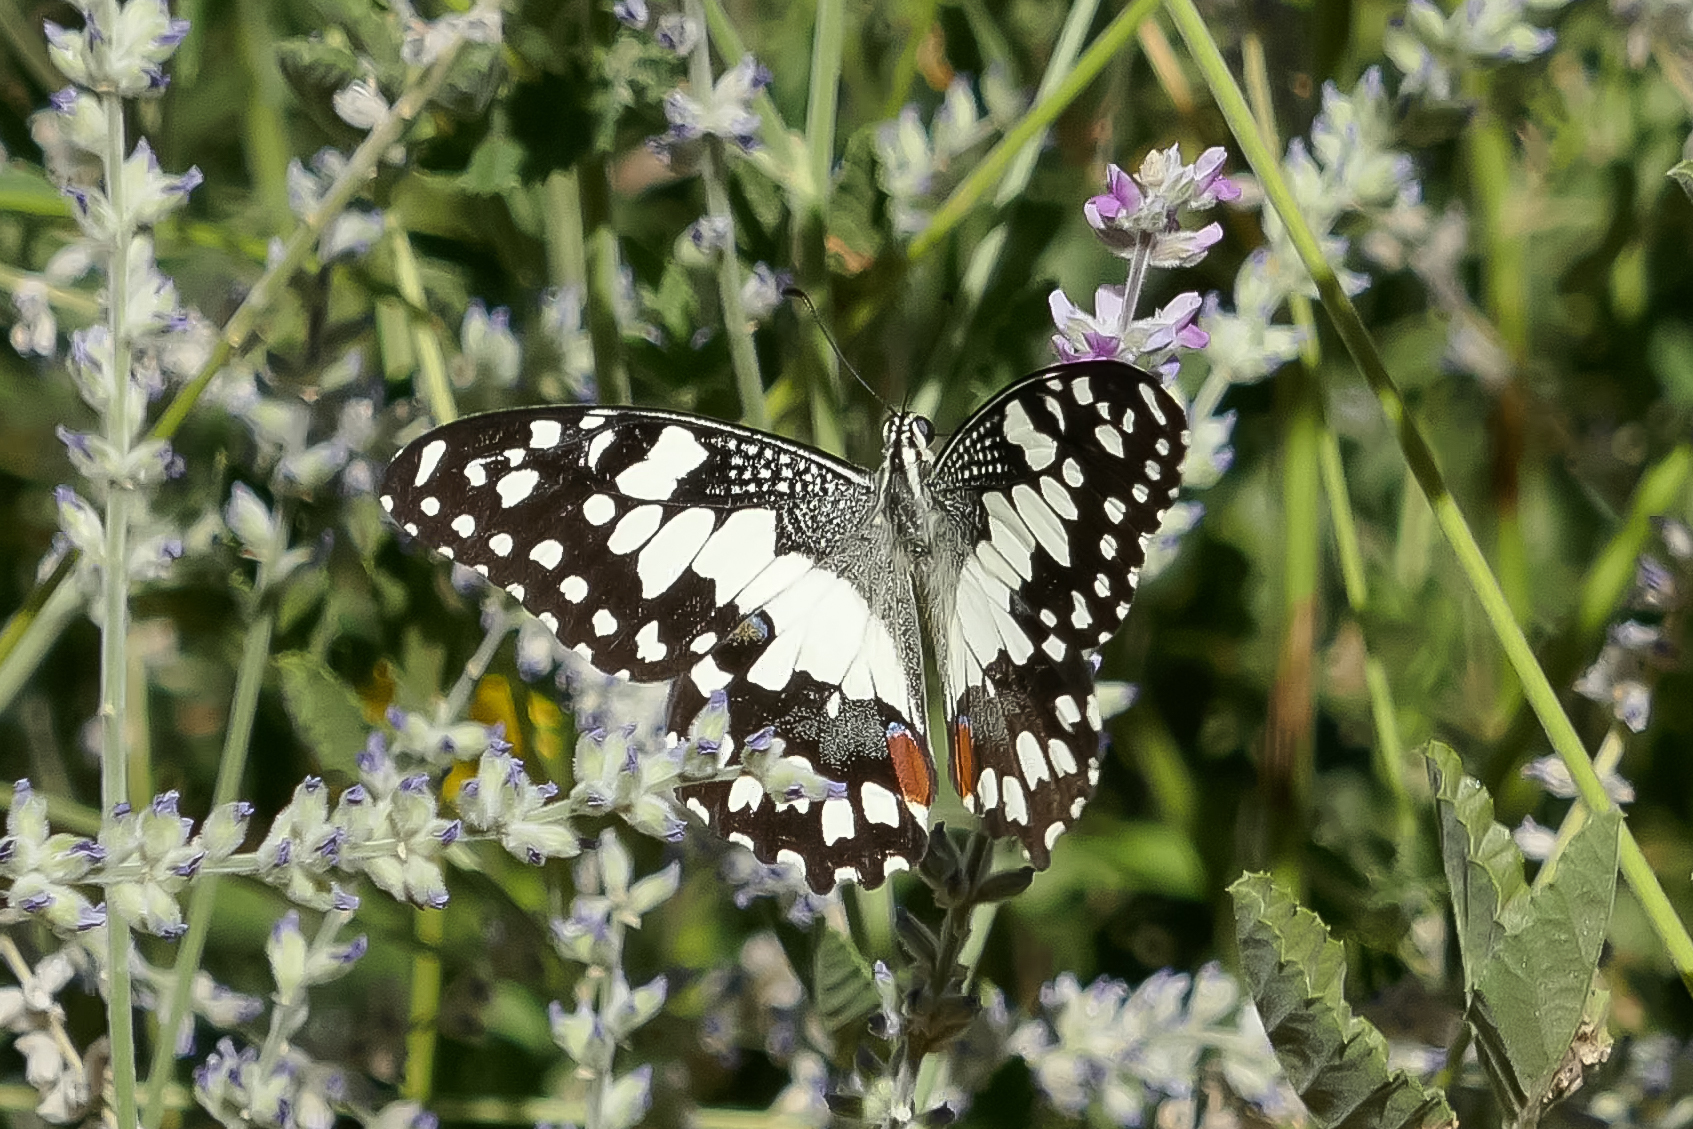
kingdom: Animalia
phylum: Arthropoda
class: Insecta
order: Lepidoptera
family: Papilionidae
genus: Papilio
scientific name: Papilio demoleus
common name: Lime butterfly
